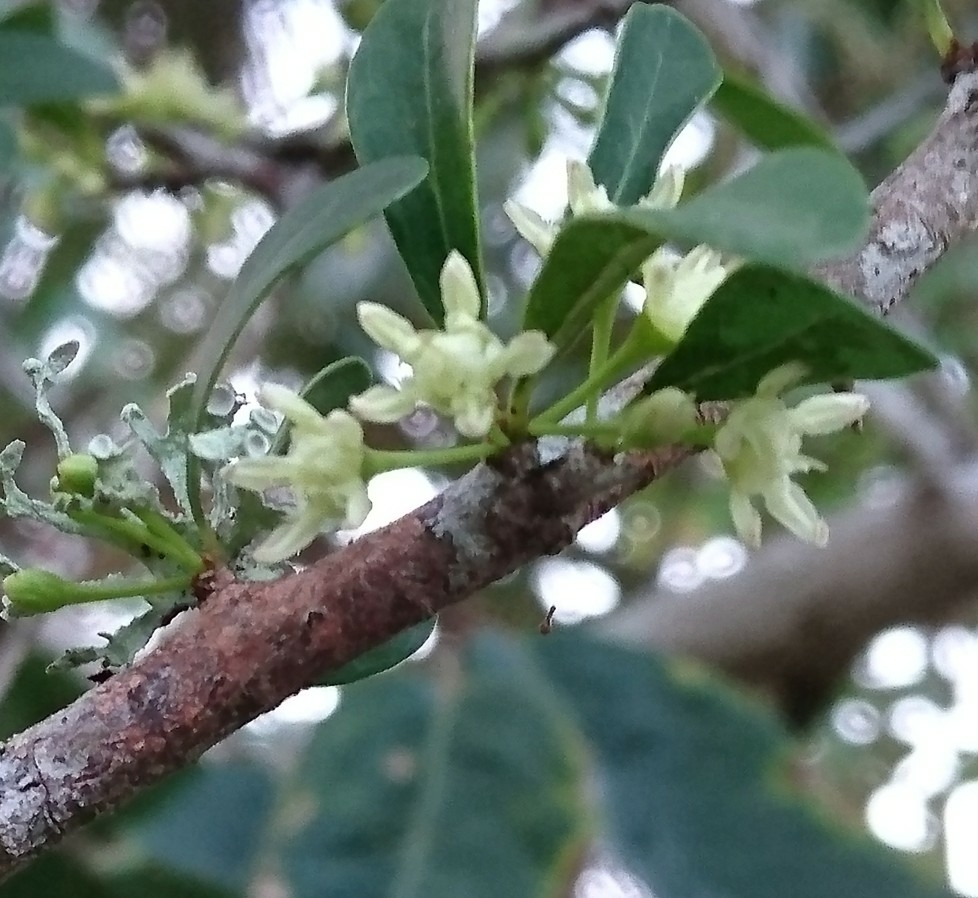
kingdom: Plantae
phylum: Tracheophyta
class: Magnoliopsida
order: Ericales
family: Sapotaceae
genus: Sideroxylon
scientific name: Sideroxylon celastrinum
